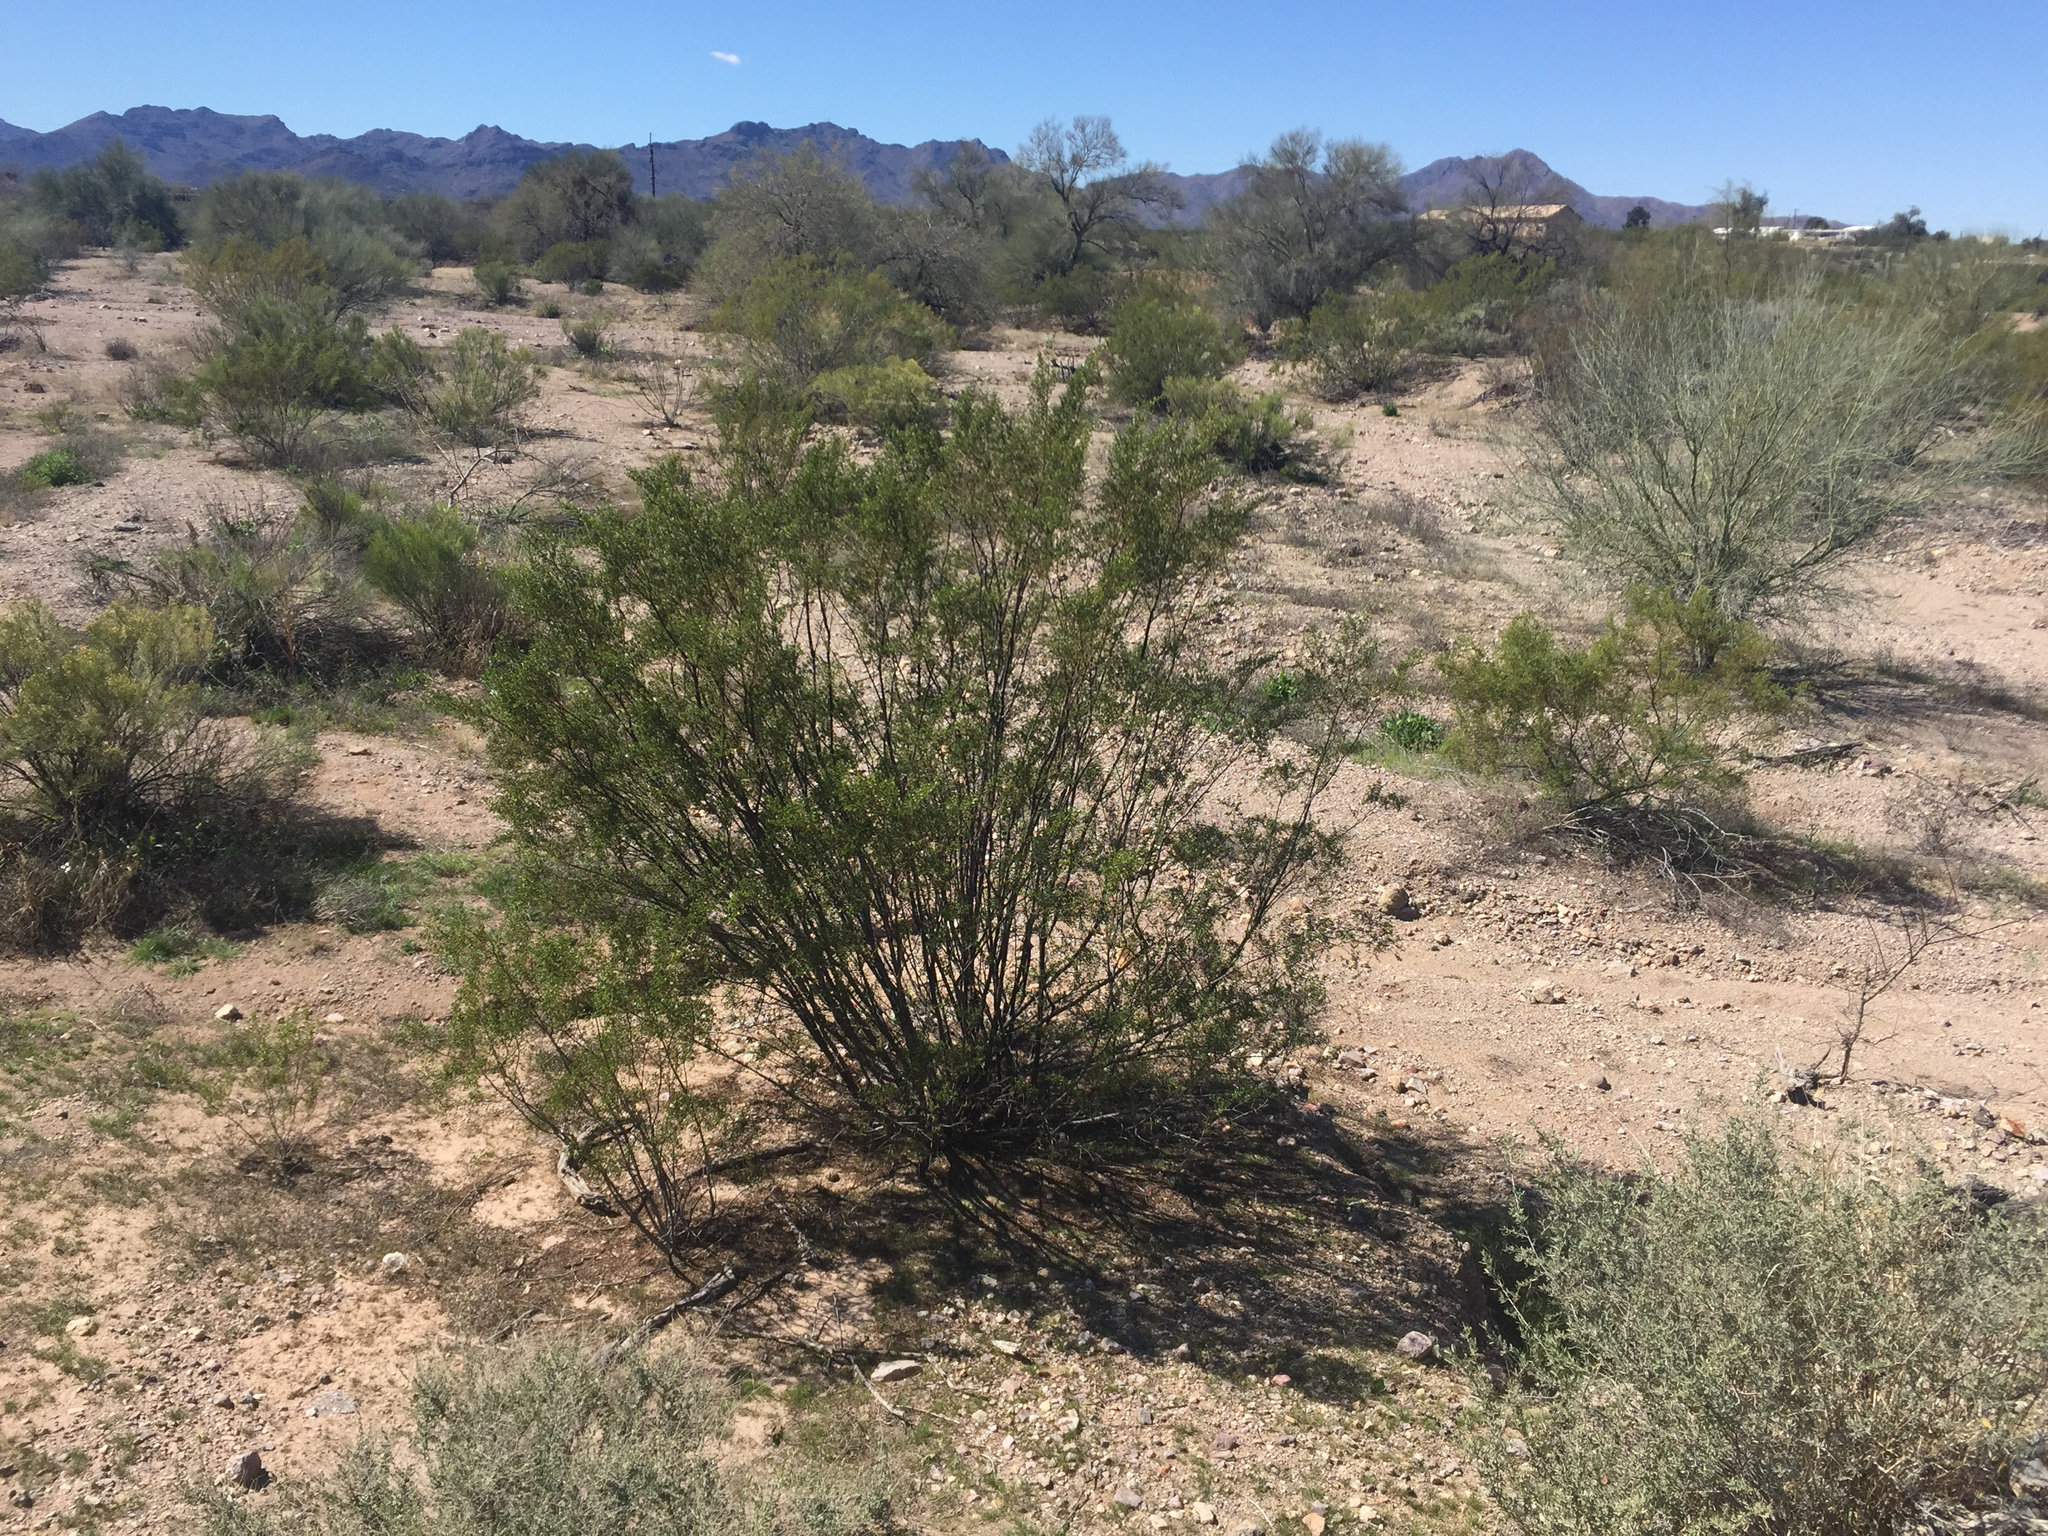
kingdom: Plantae
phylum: Tracheophyta
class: Magnoliopsida
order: Zygophyllales
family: Zygophyllaceae
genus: Larrea
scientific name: Larrea tridentata
